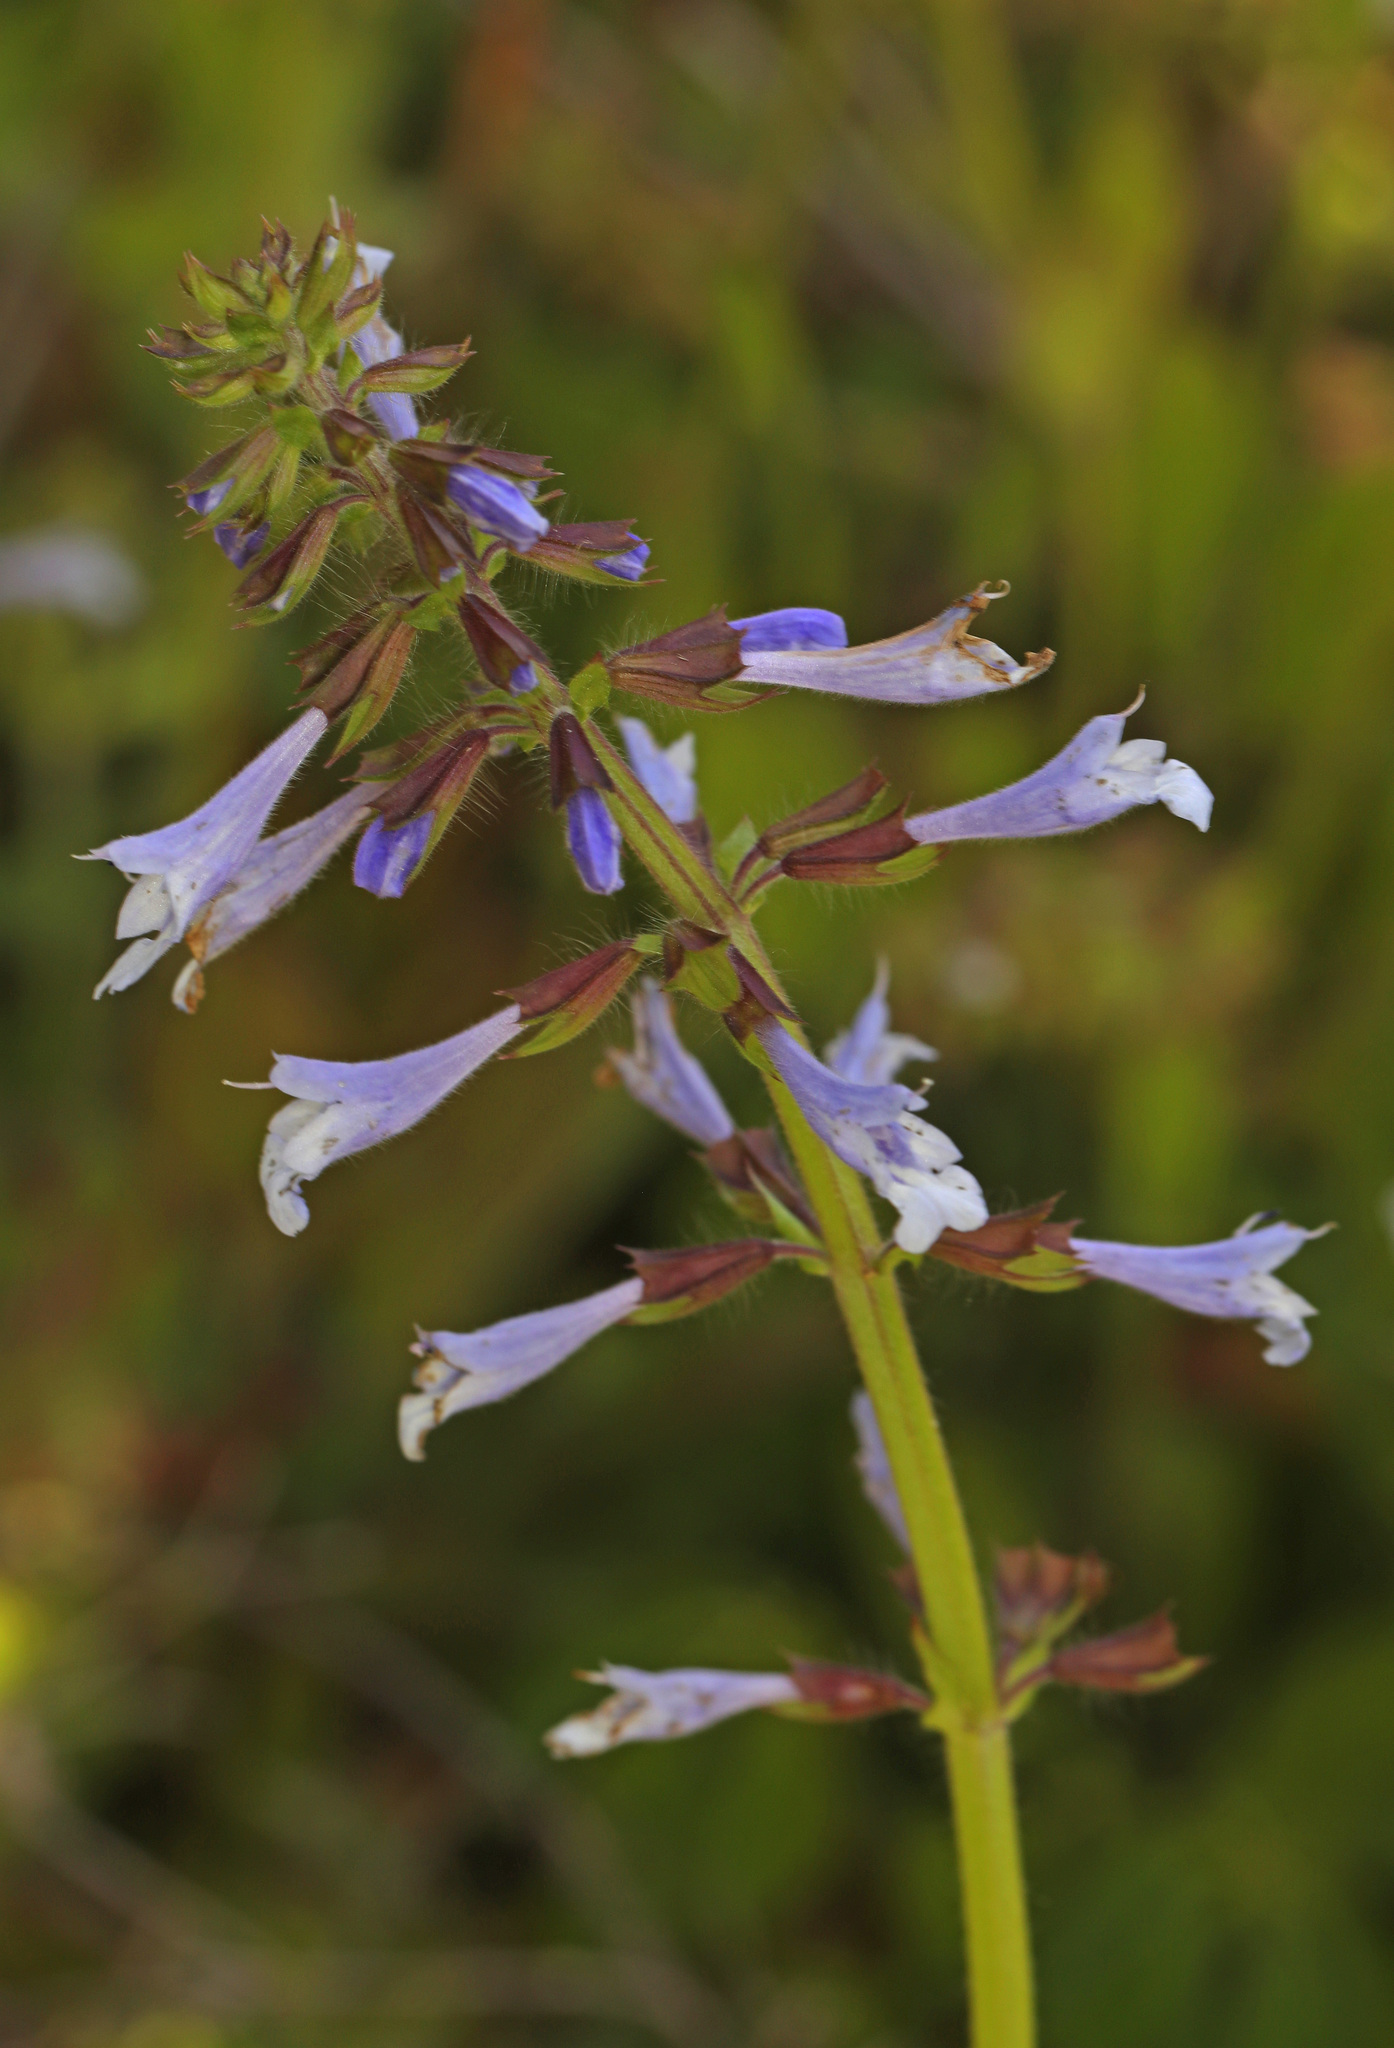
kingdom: Plantae
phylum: Tracheophyta
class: Magnoliopsida
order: Lamiales
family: Lamiaceae
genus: Salvia
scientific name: Salvia lyrata
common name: Cancerweed
